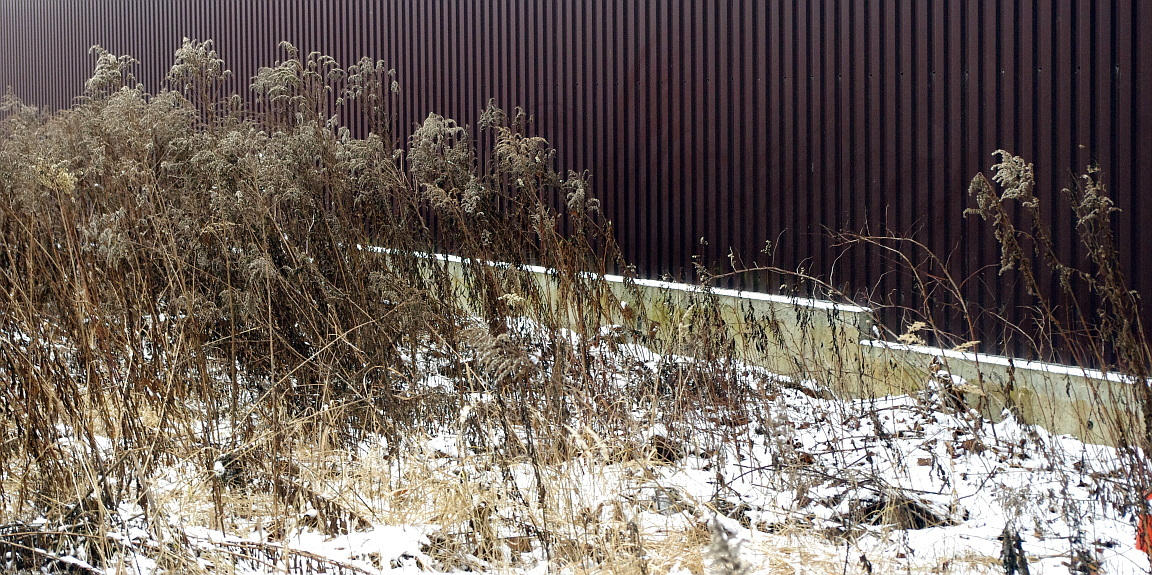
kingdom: Plantae
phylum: Tracheophyta
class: Magnoliopsida
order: Asterales
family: Asteraceae
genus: Solidago
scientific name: Solidago gigantea
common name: Giant goldenrod
